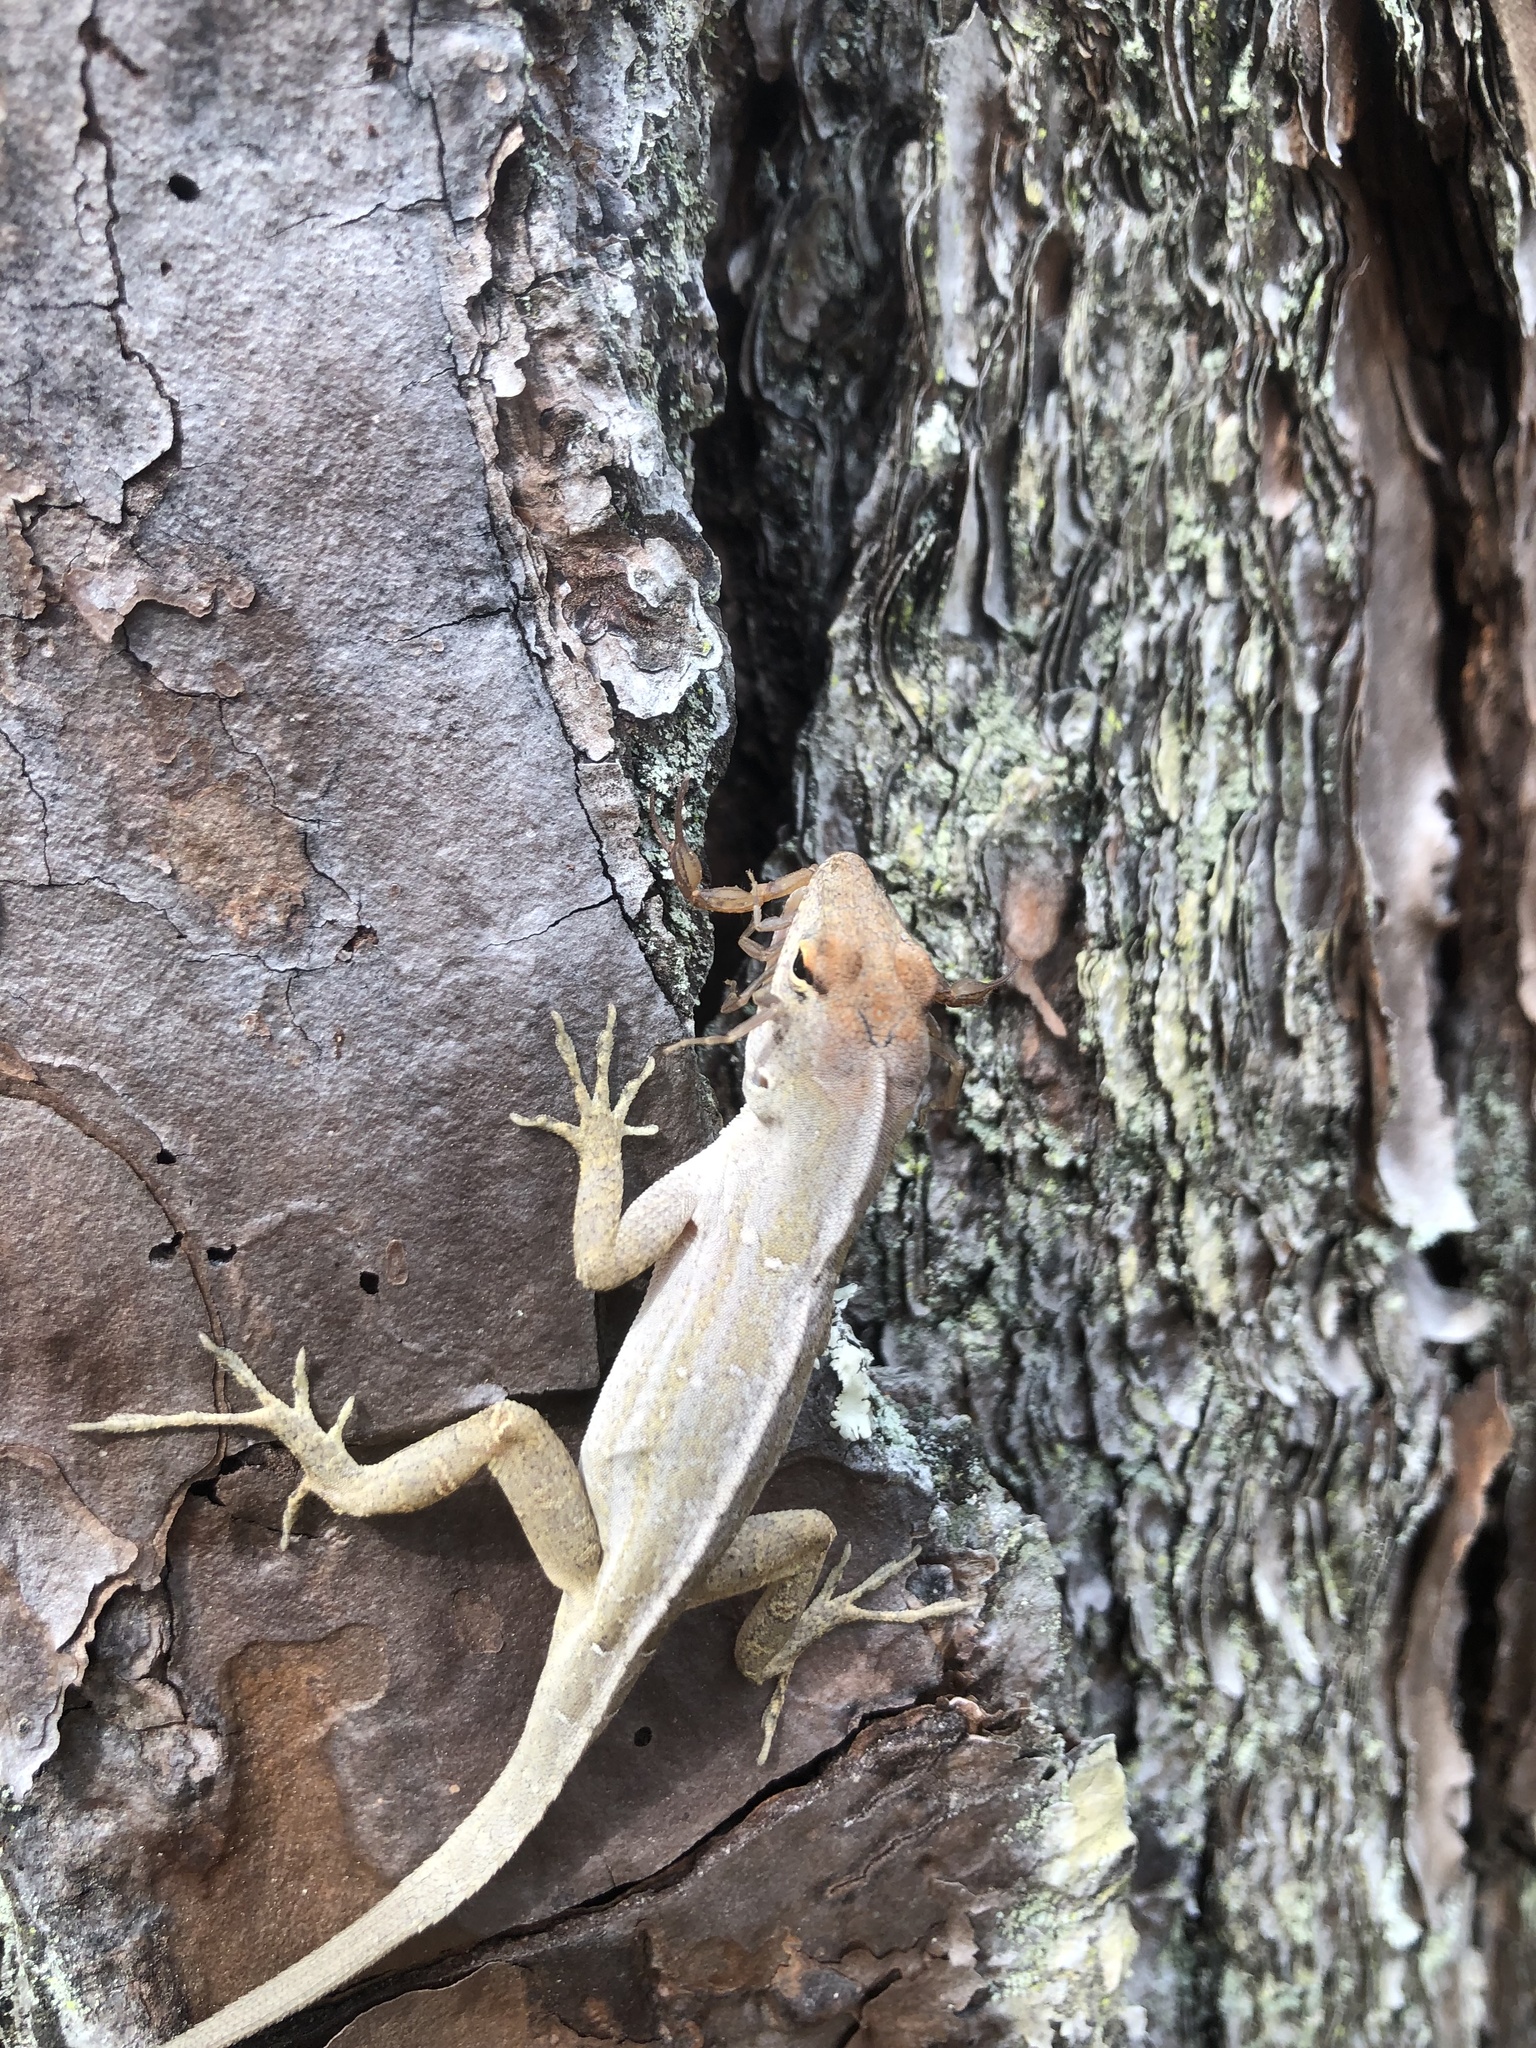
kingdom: Animalia
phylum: Chordata
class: Squamata
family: Dactyloidae
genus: Anolis
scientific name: Anolis sagrei
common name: Brown anole
